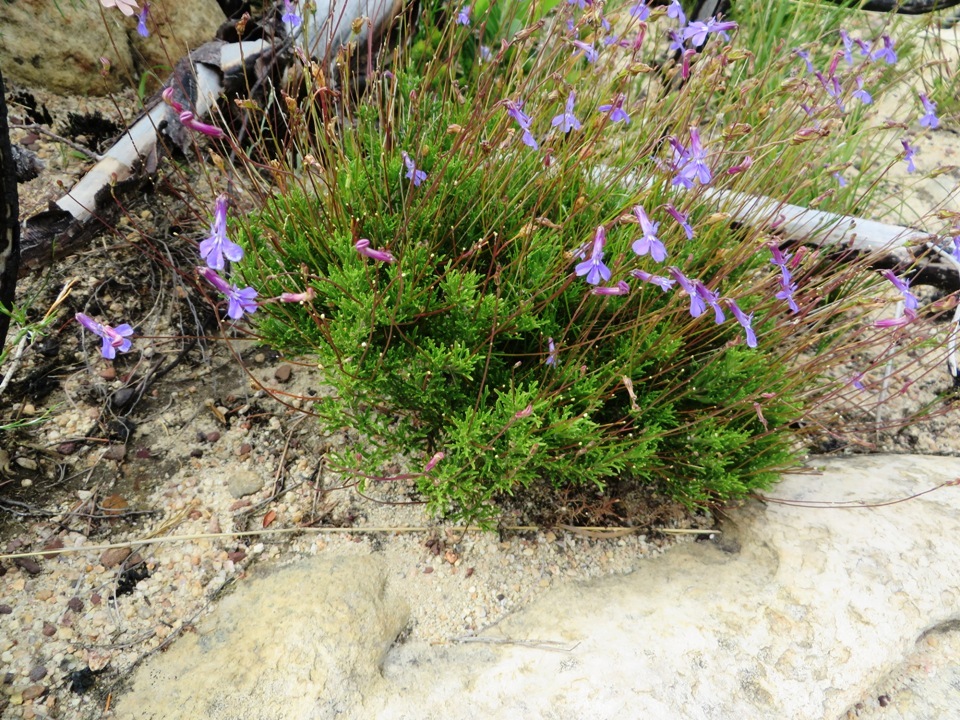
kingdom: Plantae
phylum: Tracheophyta
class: Magnoliopsida
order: Asterales
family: Campanulaceae
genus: Lobelia
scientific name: Lobelia coronopifolia
